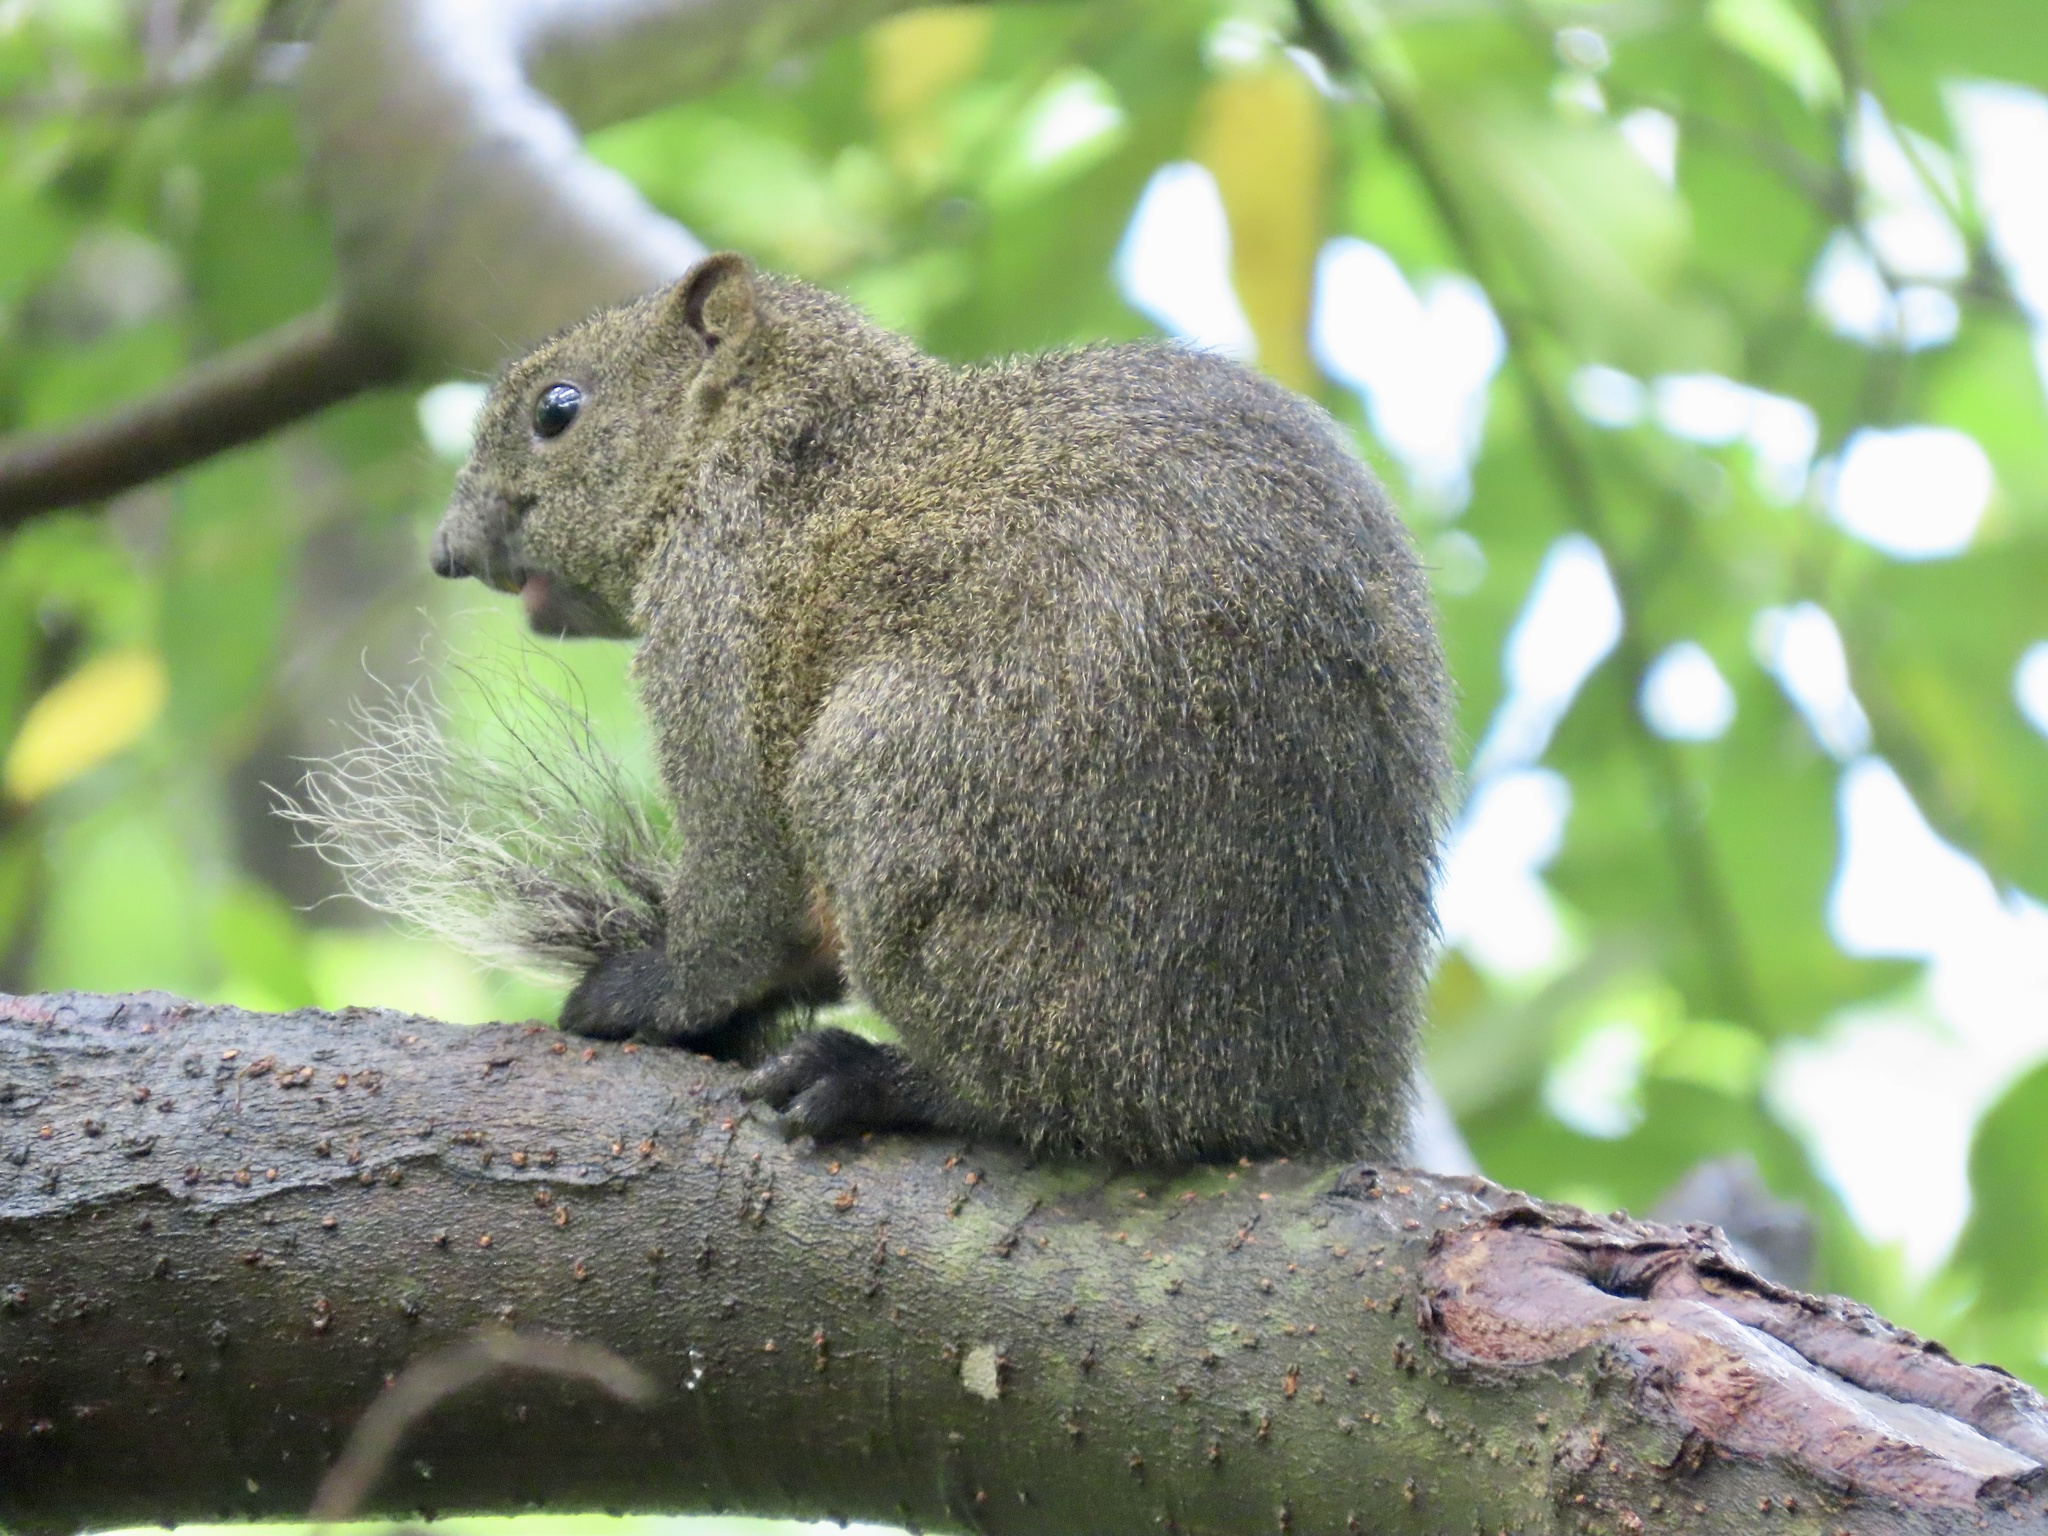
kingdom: Animalia
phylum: Chordata
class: Mammalia
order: Rodentia
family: Sciuridae
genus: Callosciurus
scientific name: Callosciurus erythraeus
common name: Pallas's squirrel
